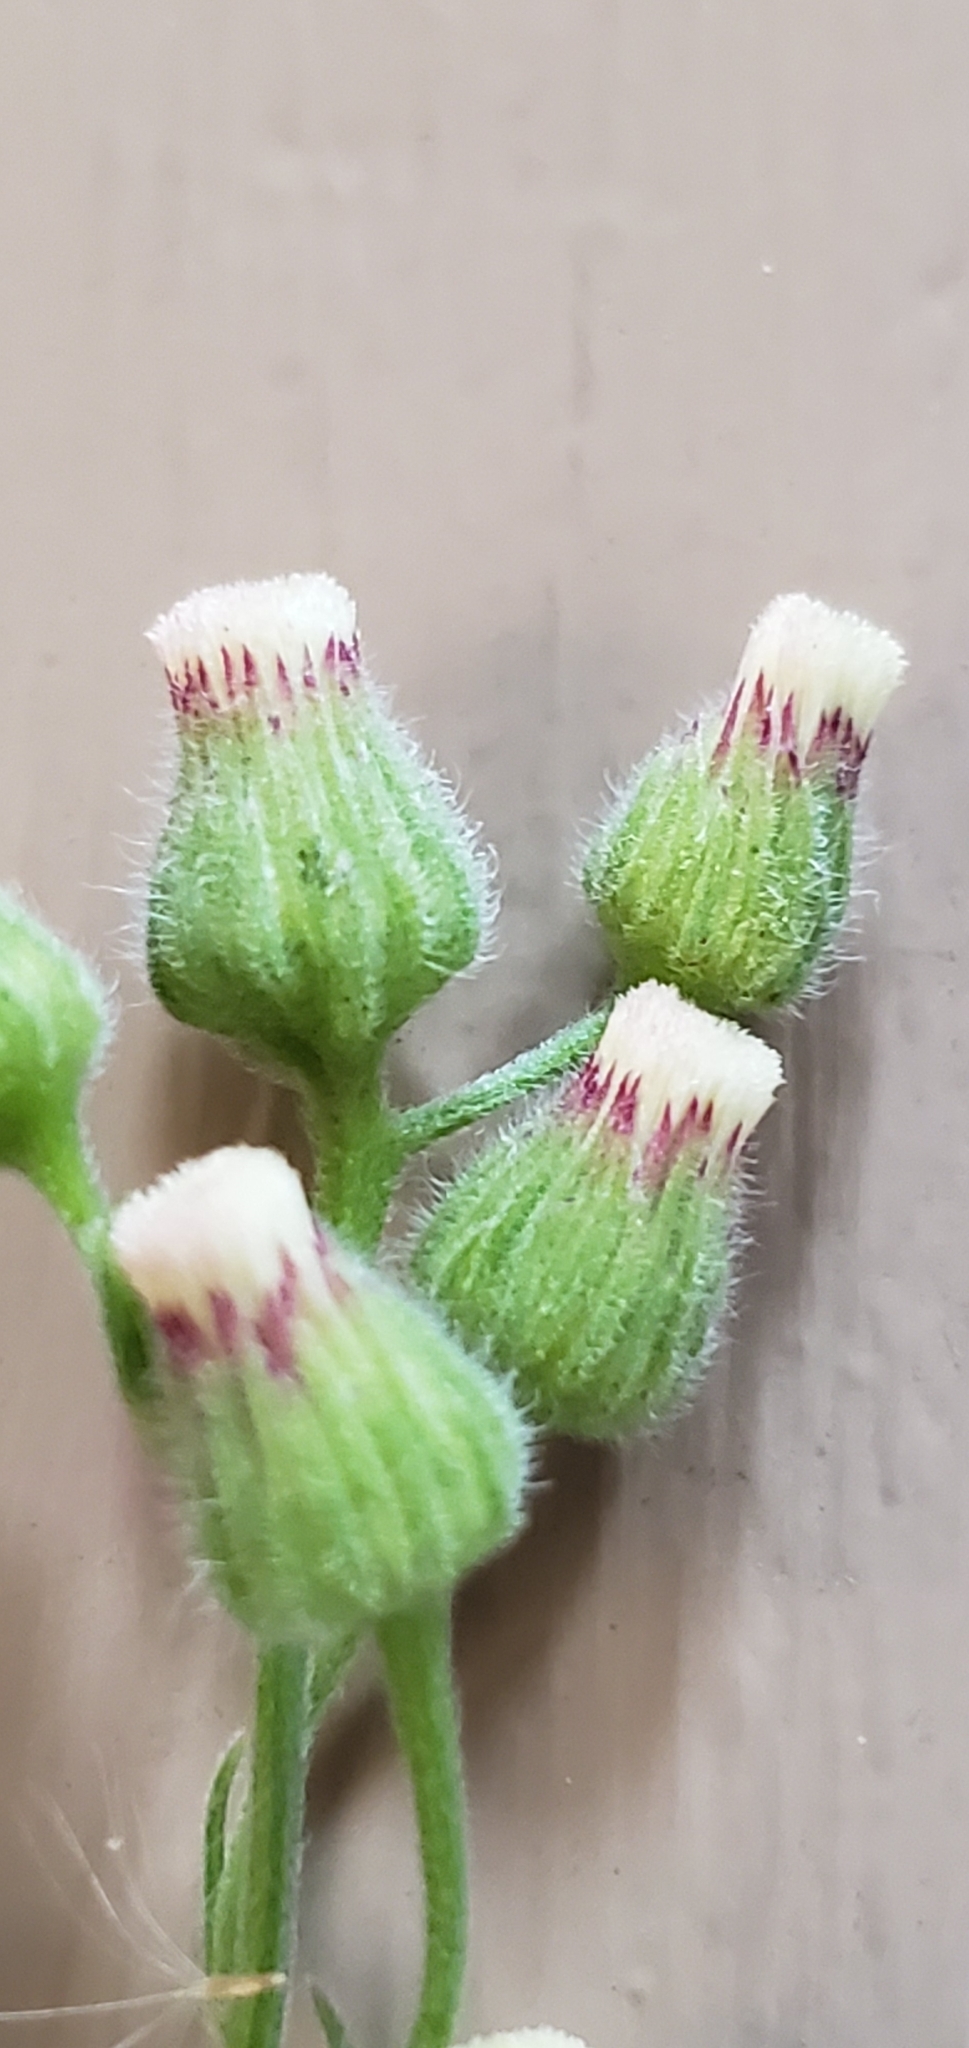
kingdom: Plantae
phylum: Tracheophyta
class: Magnoliopsida
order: Asterales
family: Asteraceae
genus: Erigeron
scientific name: Erigeron bonariensis
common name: Argentine fleabane
